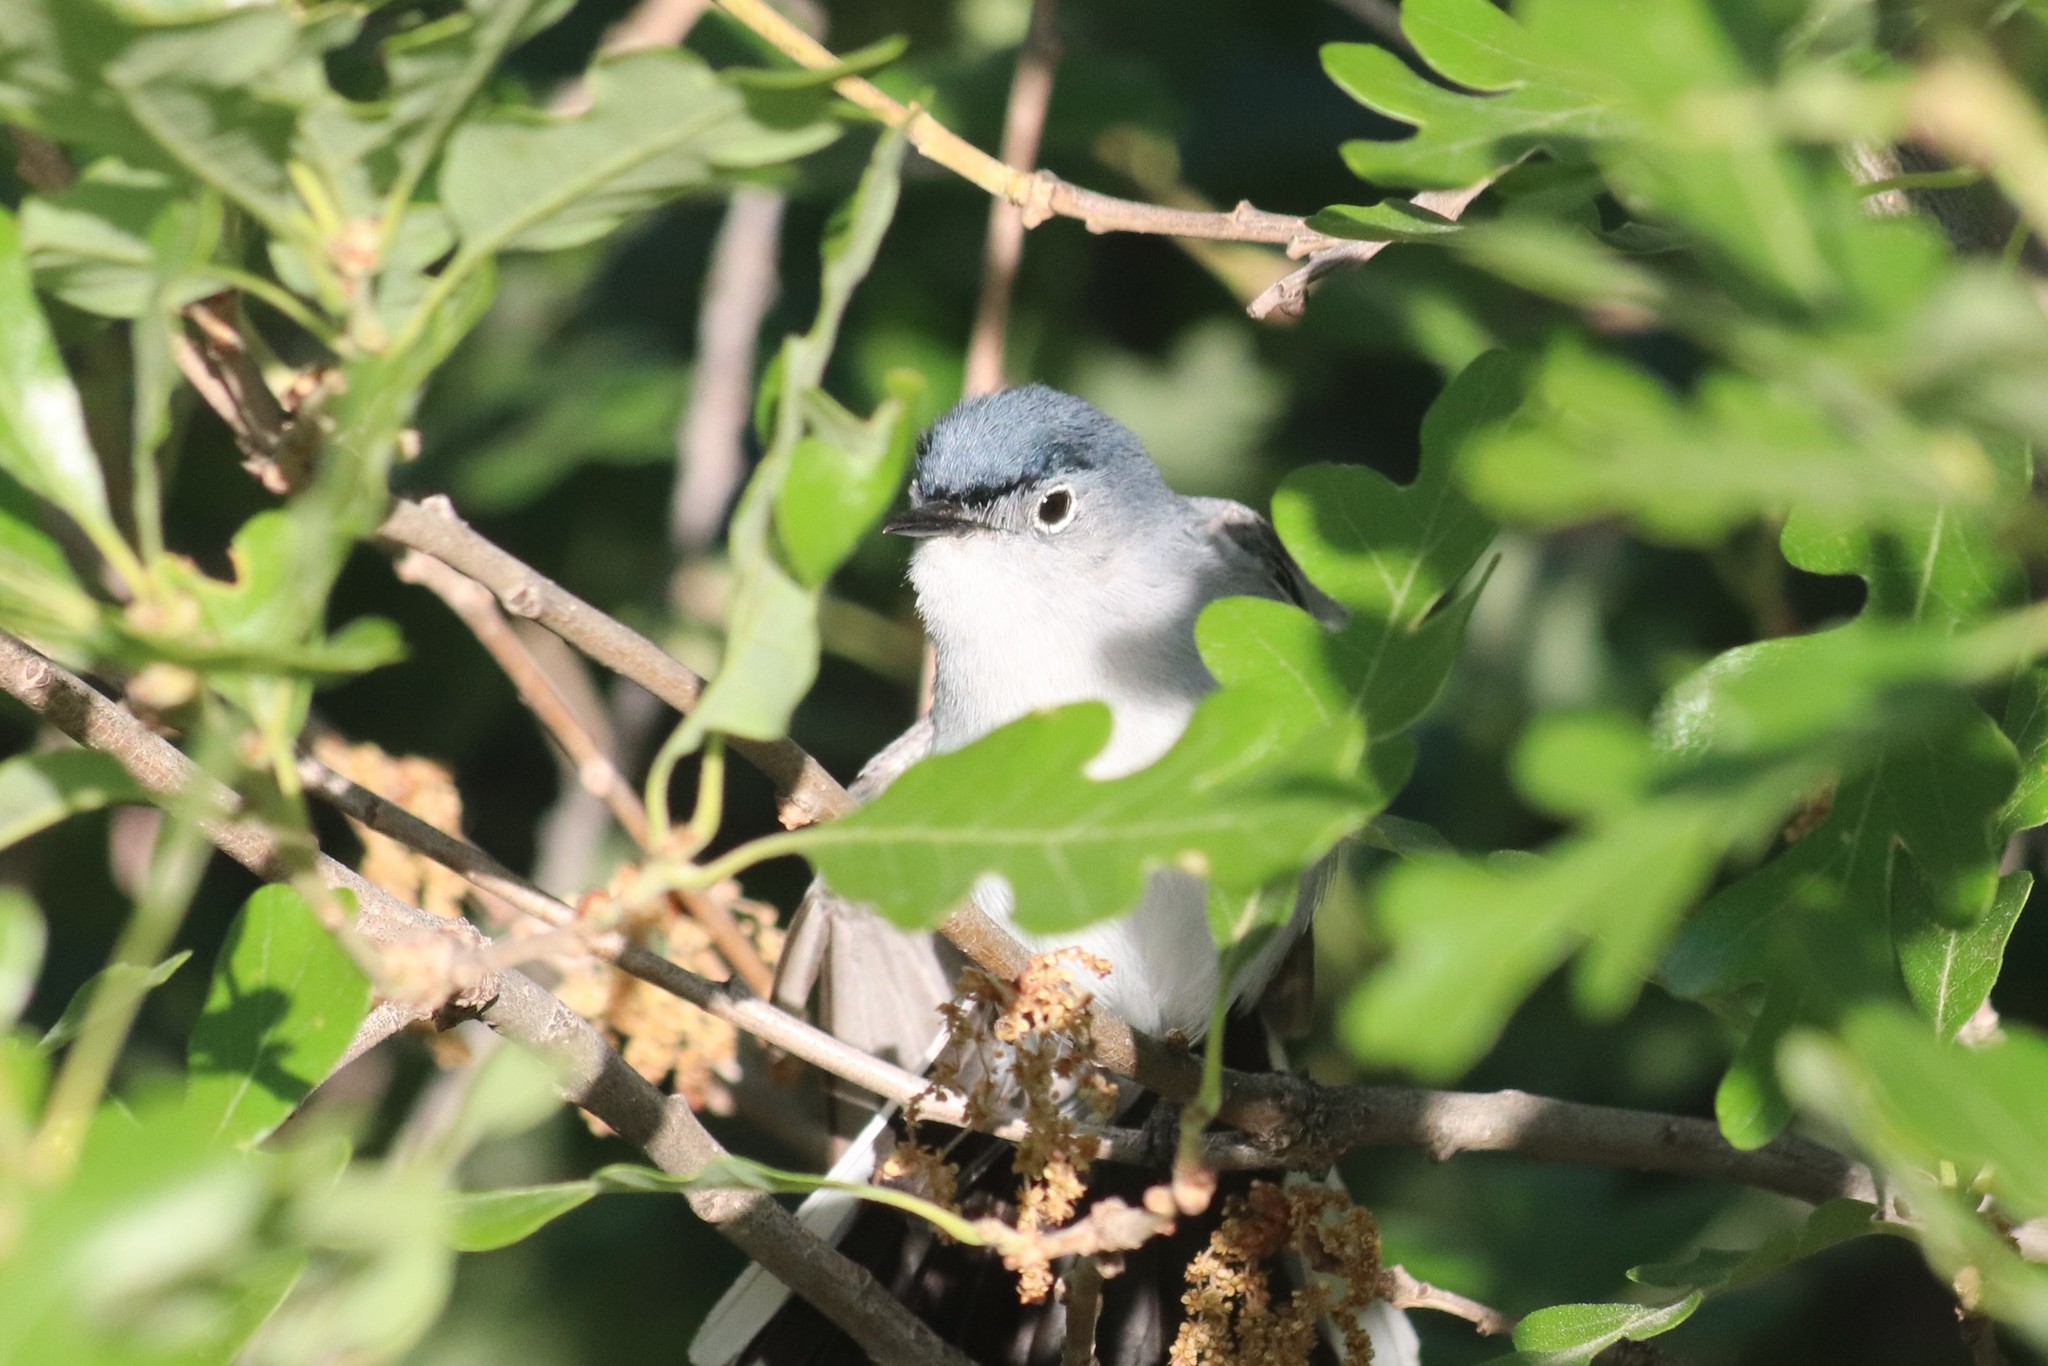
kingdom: Animalia
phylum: Chordata
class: Aves
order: Passeriformes
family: Polioptilidae
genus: Polioptila
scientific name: Polioptila caerulea
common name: Blue-gray gnatcatcher
